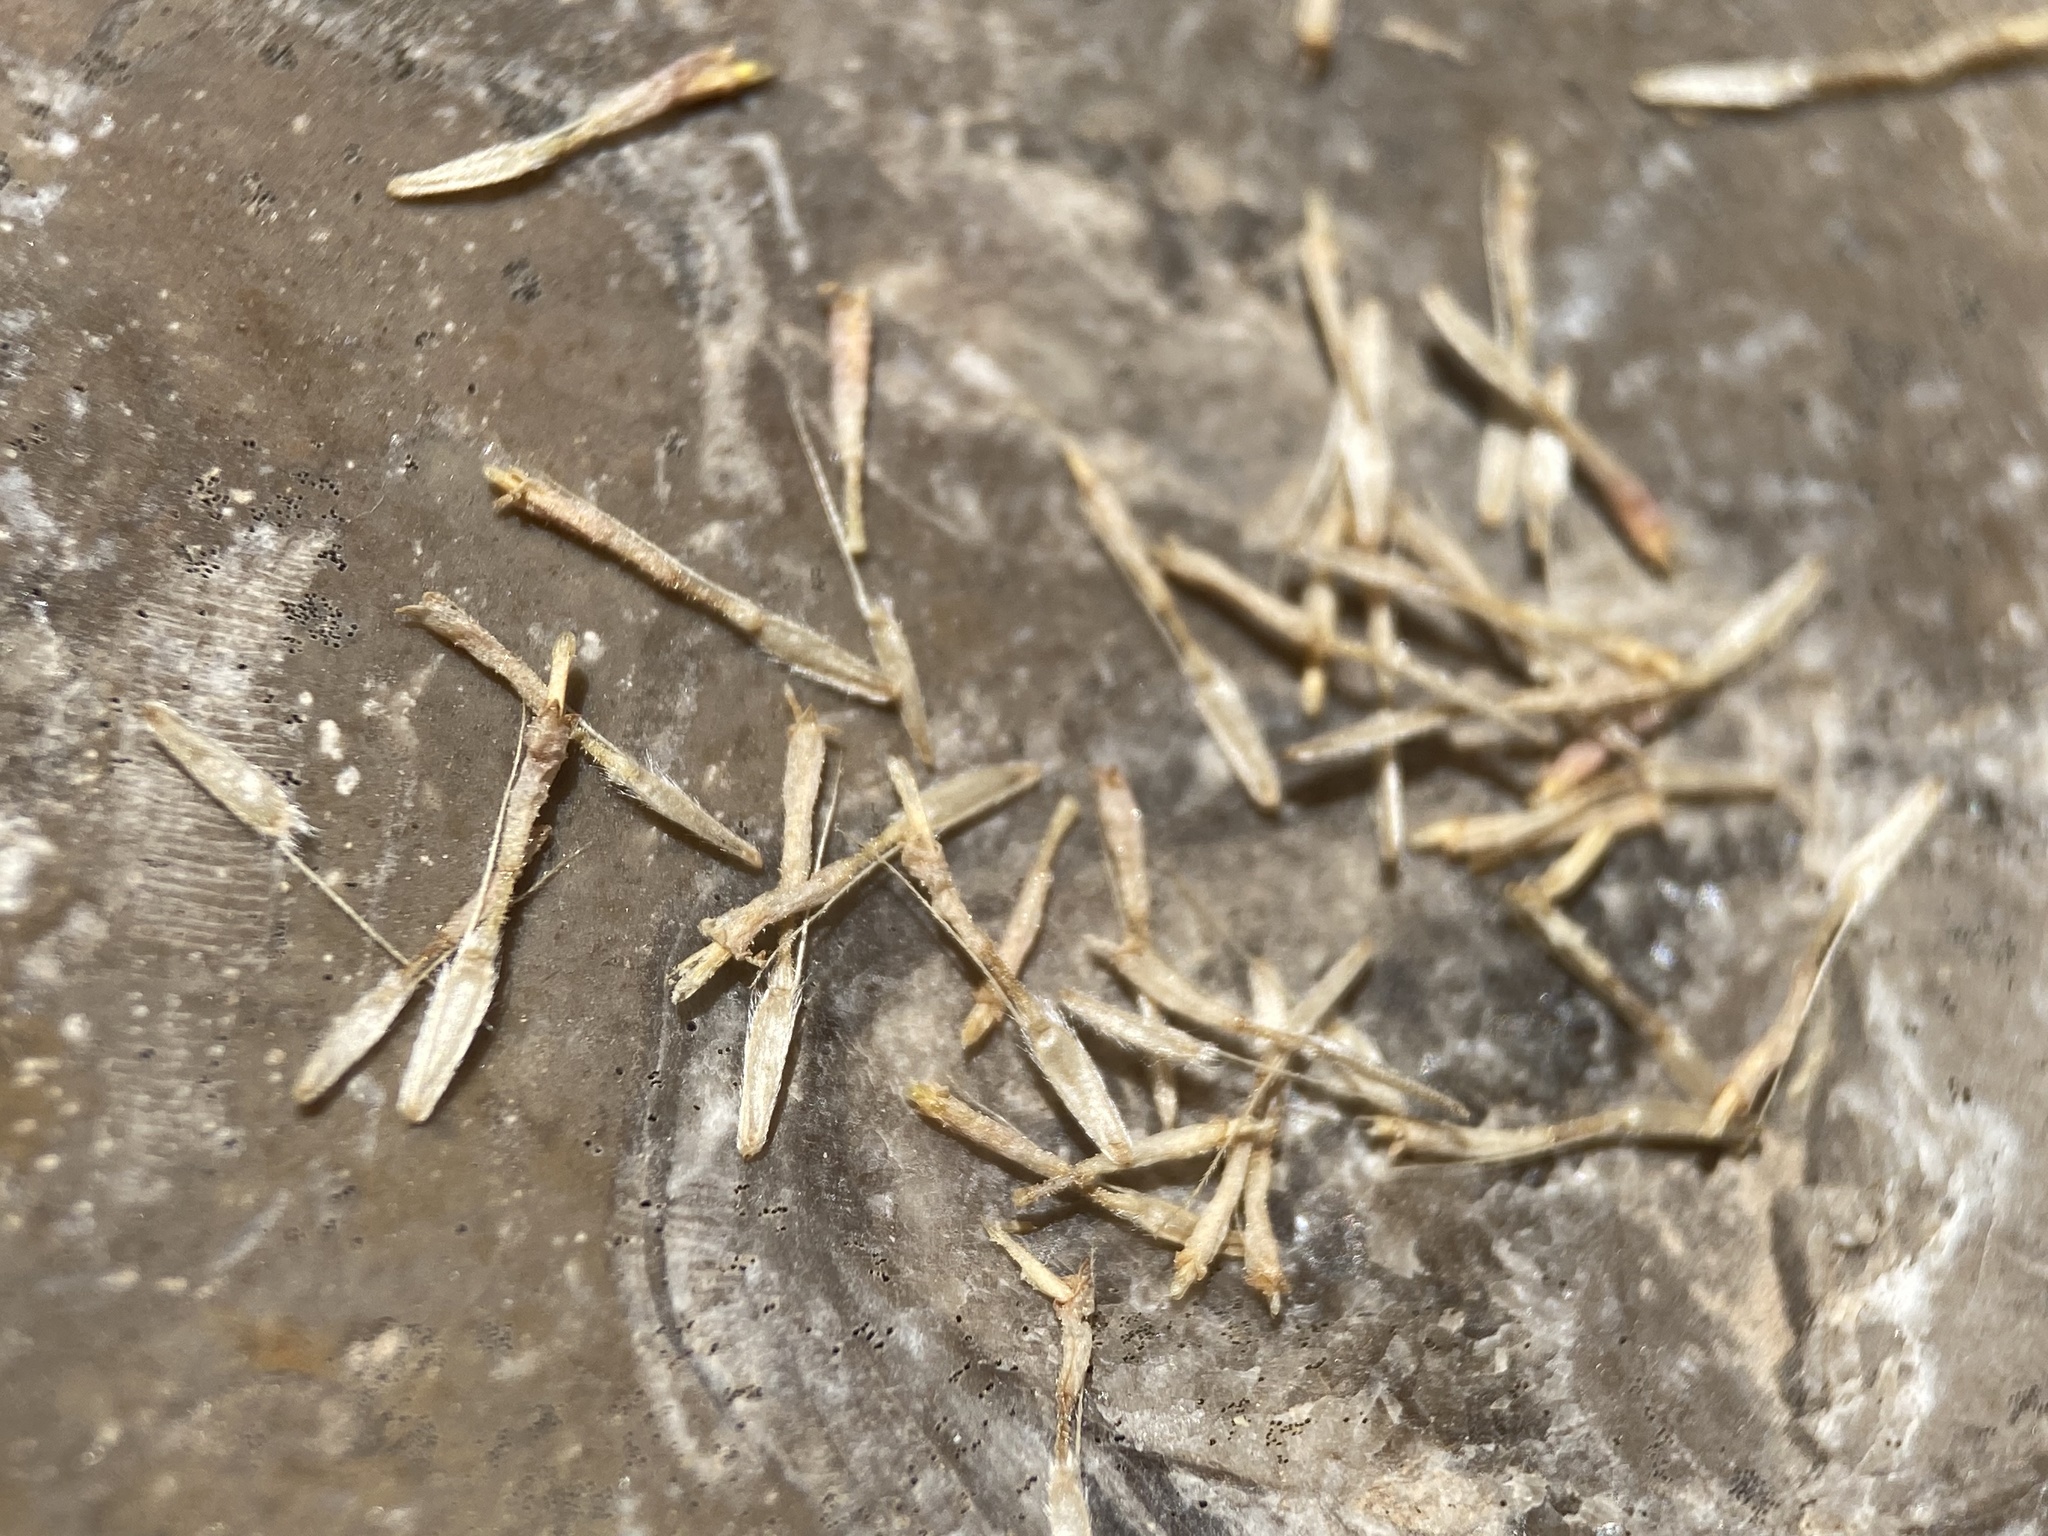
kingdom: Plantae
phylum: Tracheophyta
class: Magnoliopsida
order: Asterales
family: Asteraceae
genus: Laphamia
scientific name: Laphamia aglossa
